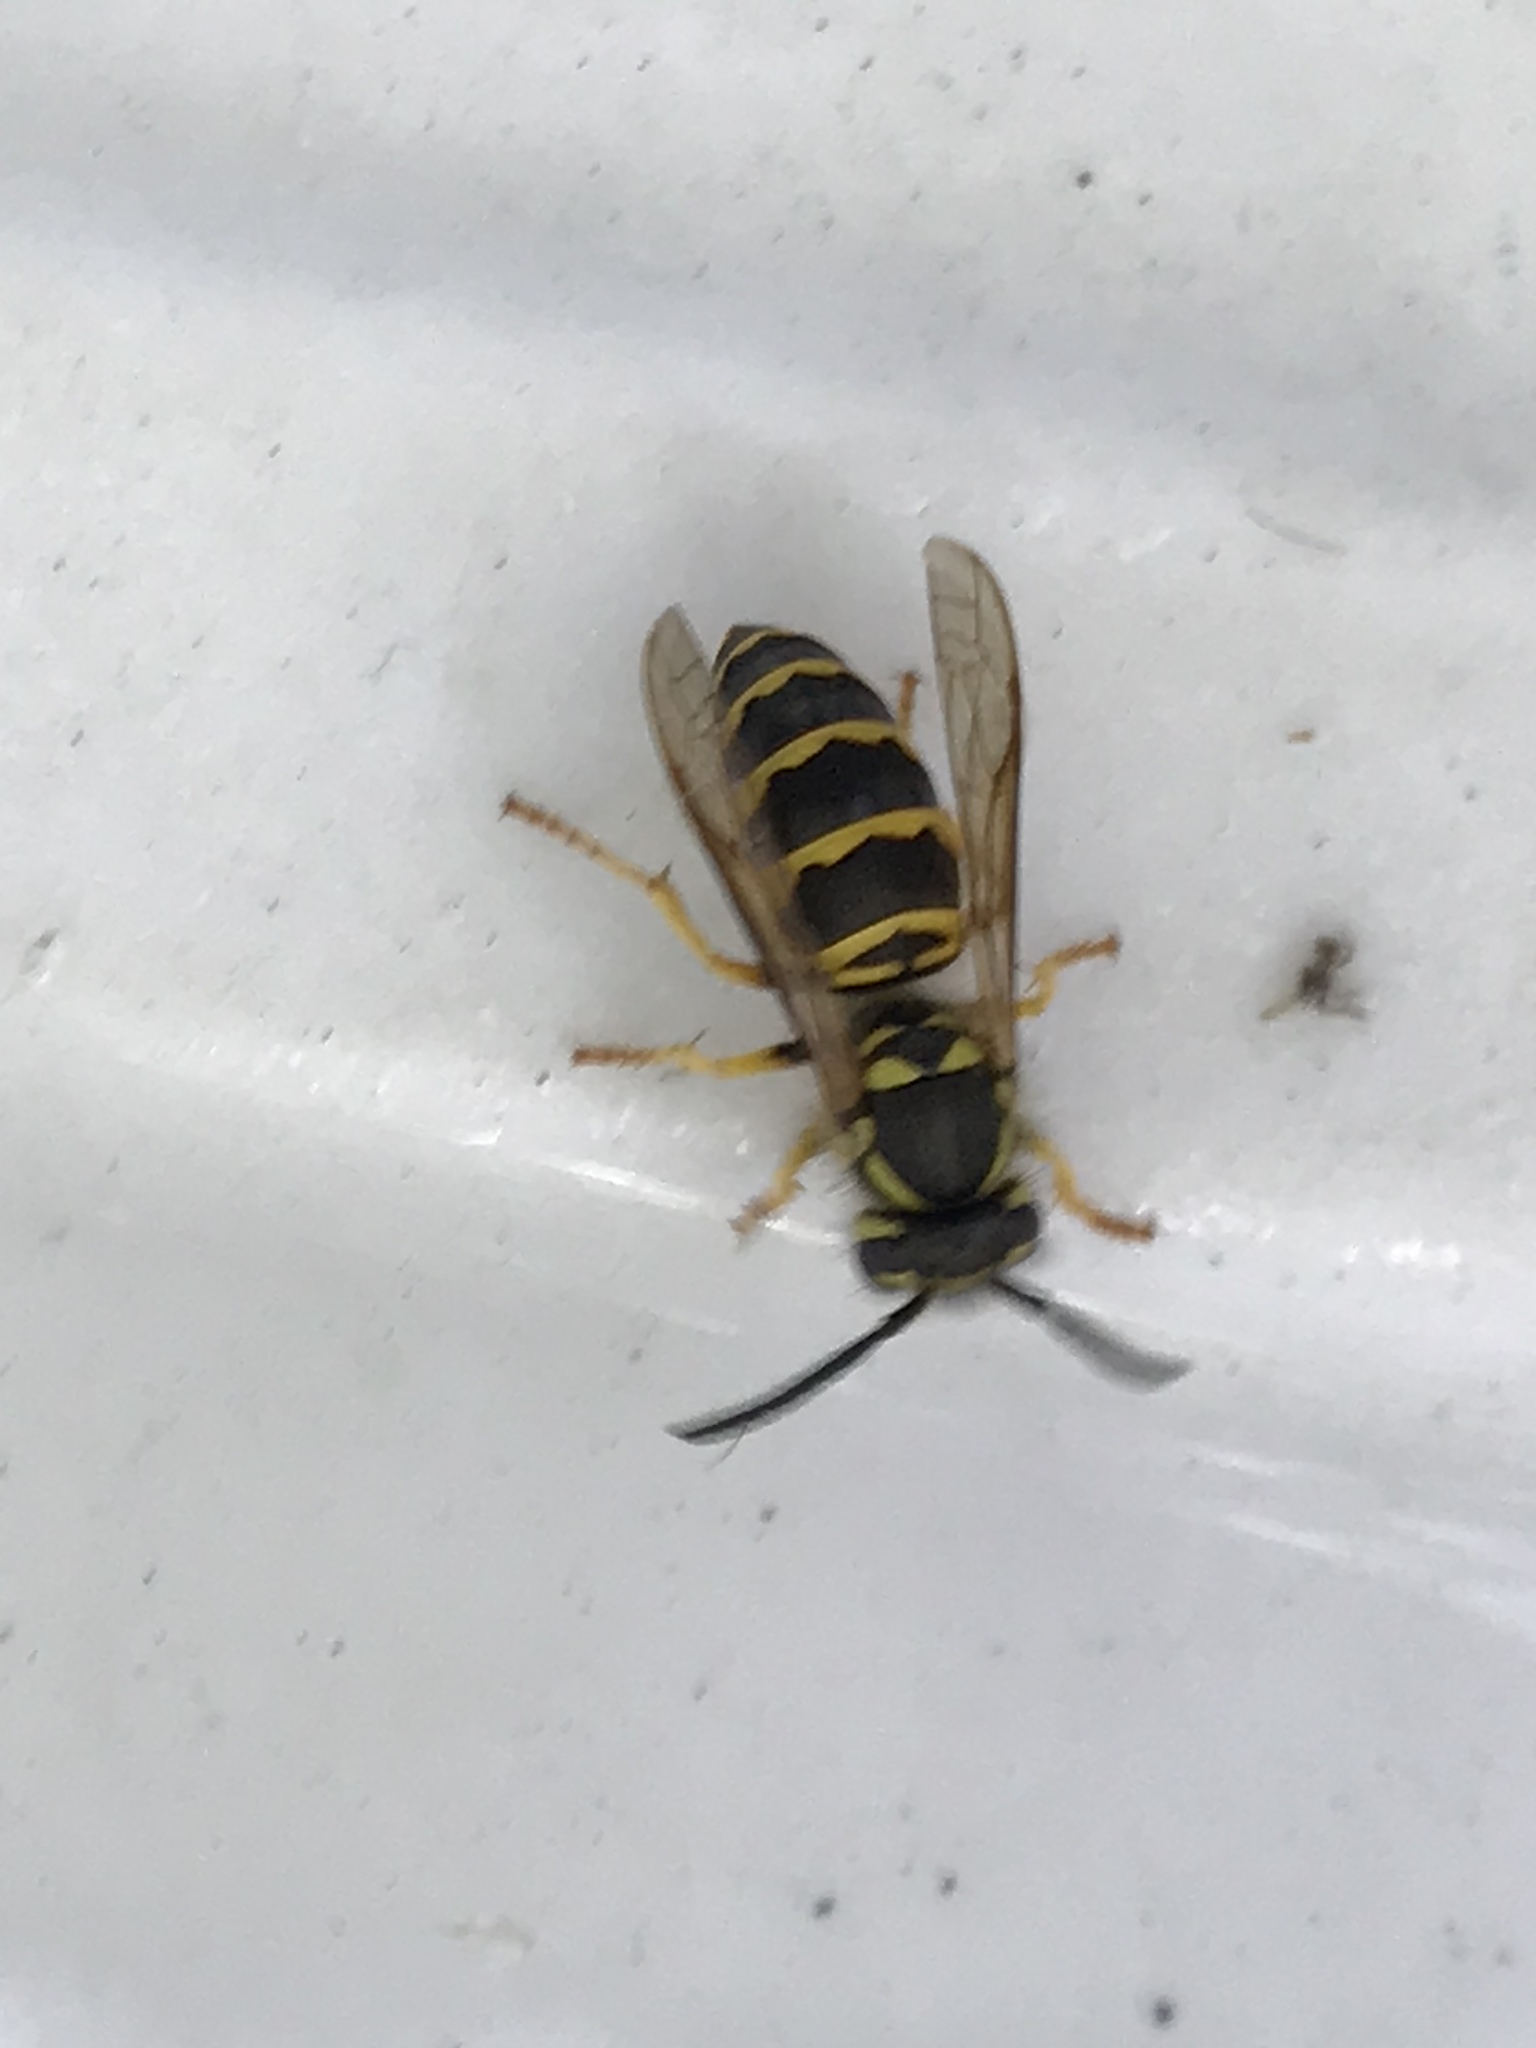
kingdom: Animalia
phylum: Arthropoda
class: Insecta
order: Hymenoptera
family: Vespidae
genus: Vespula
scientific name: Vespula maculifrons
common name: Eastern yellowjacket
